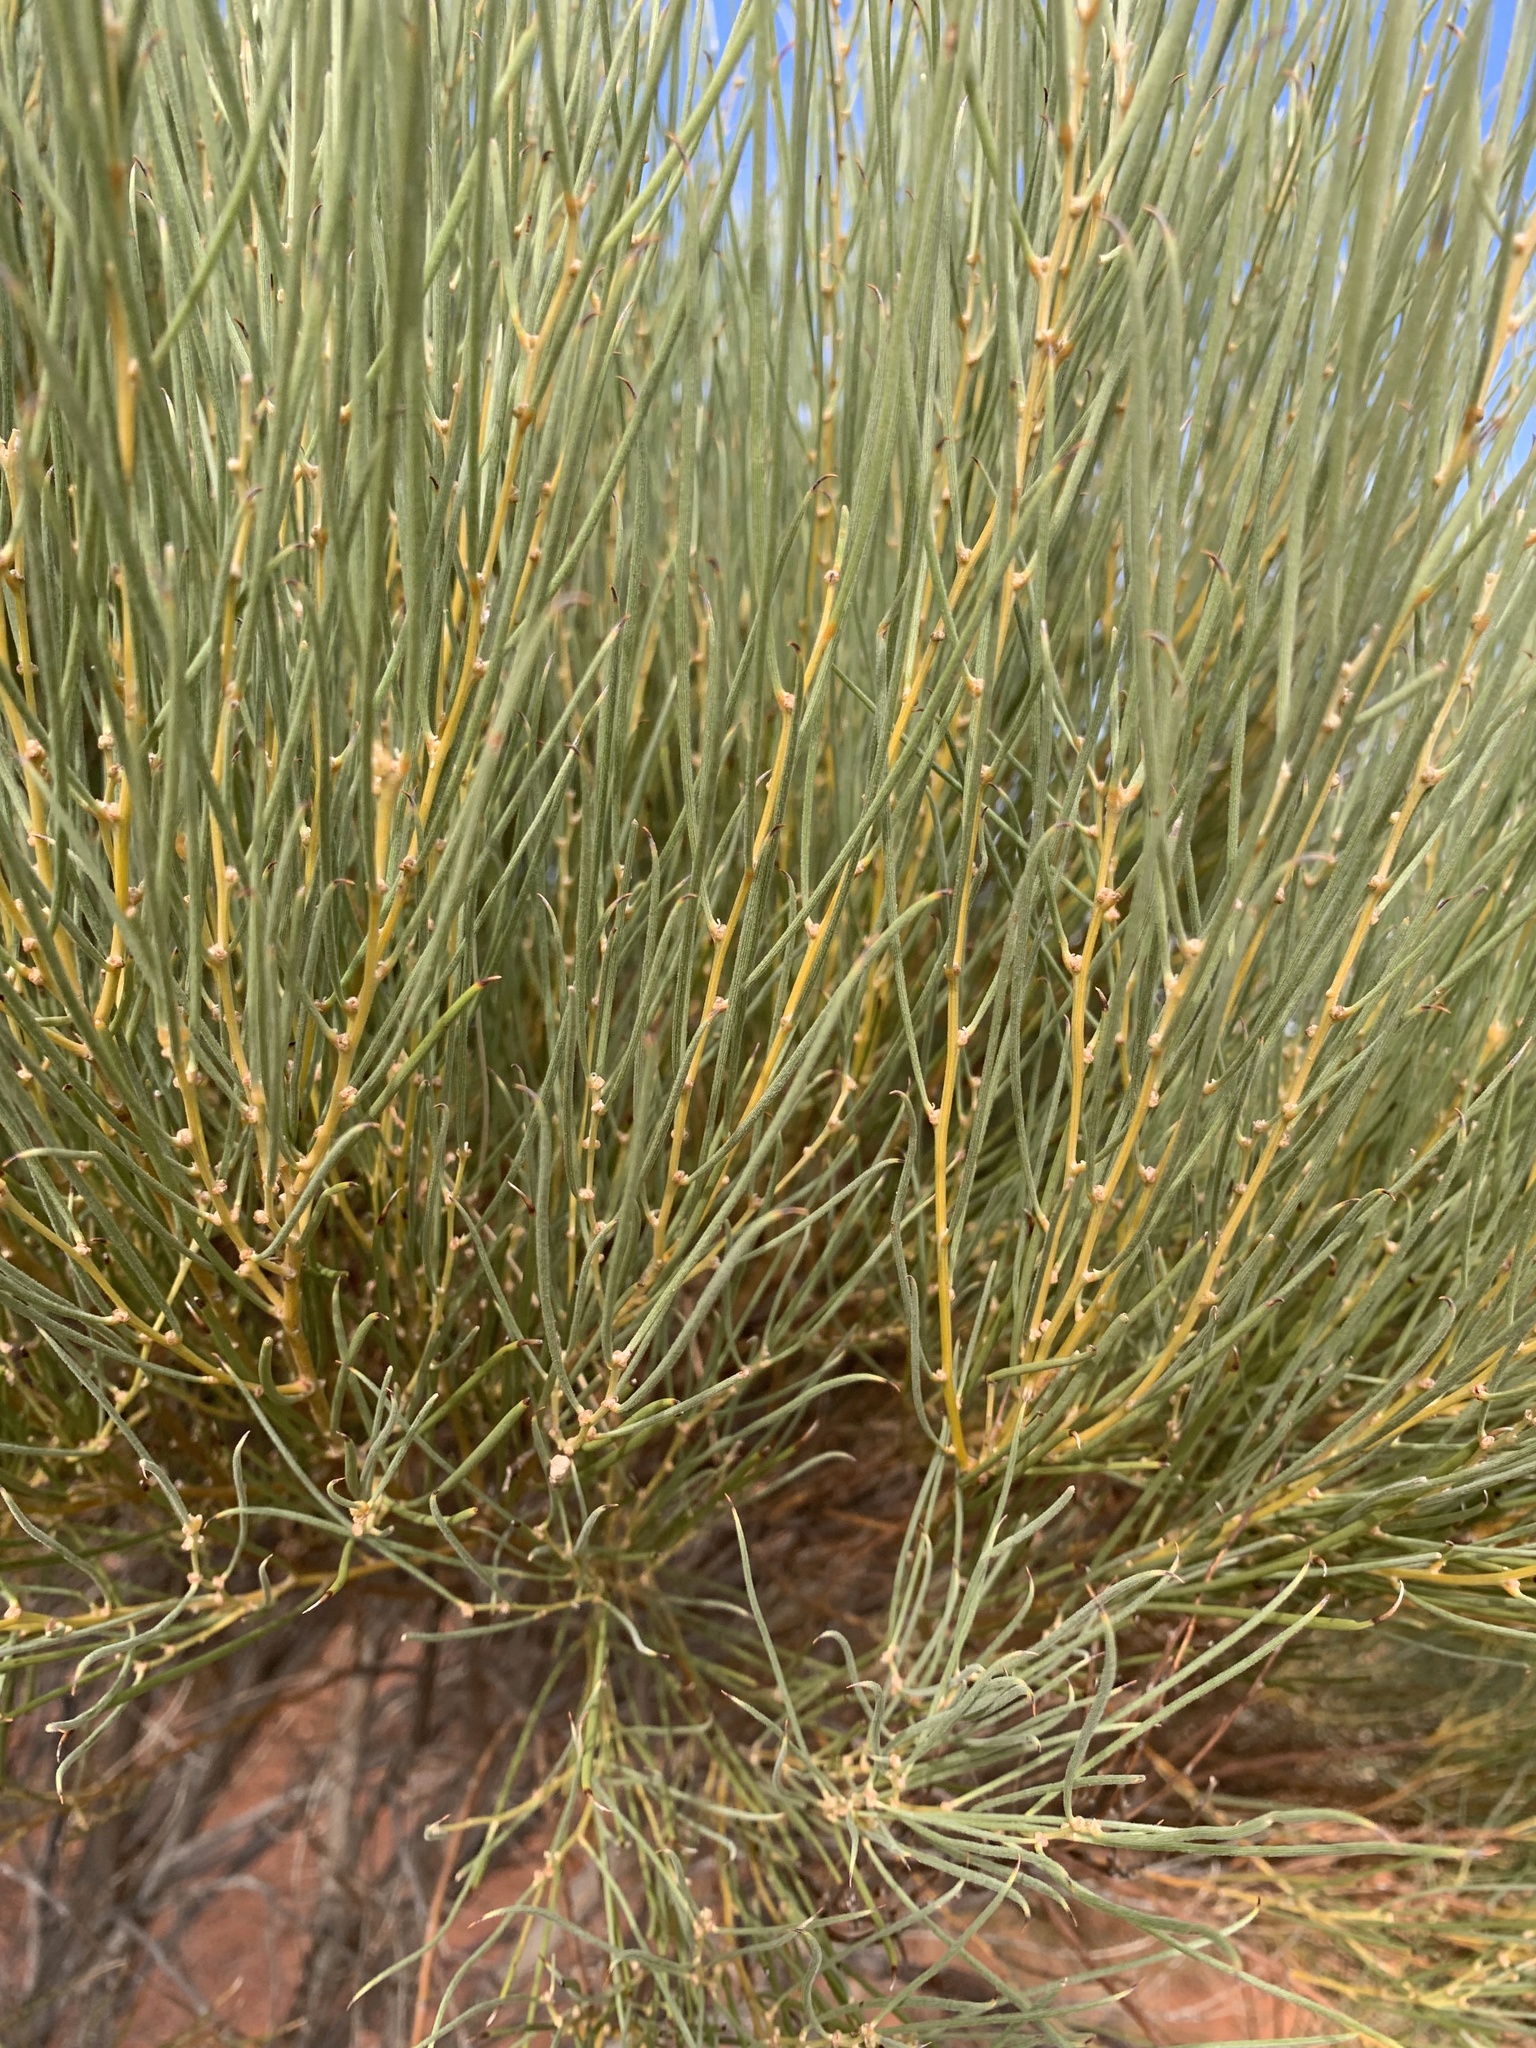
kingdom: Plantae
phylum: Tracheophyta
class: Magnoliopsida
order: Fabales
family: Fabaceae
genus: Acacia
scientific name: Acacia loderi
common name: Broken hill gidgee
